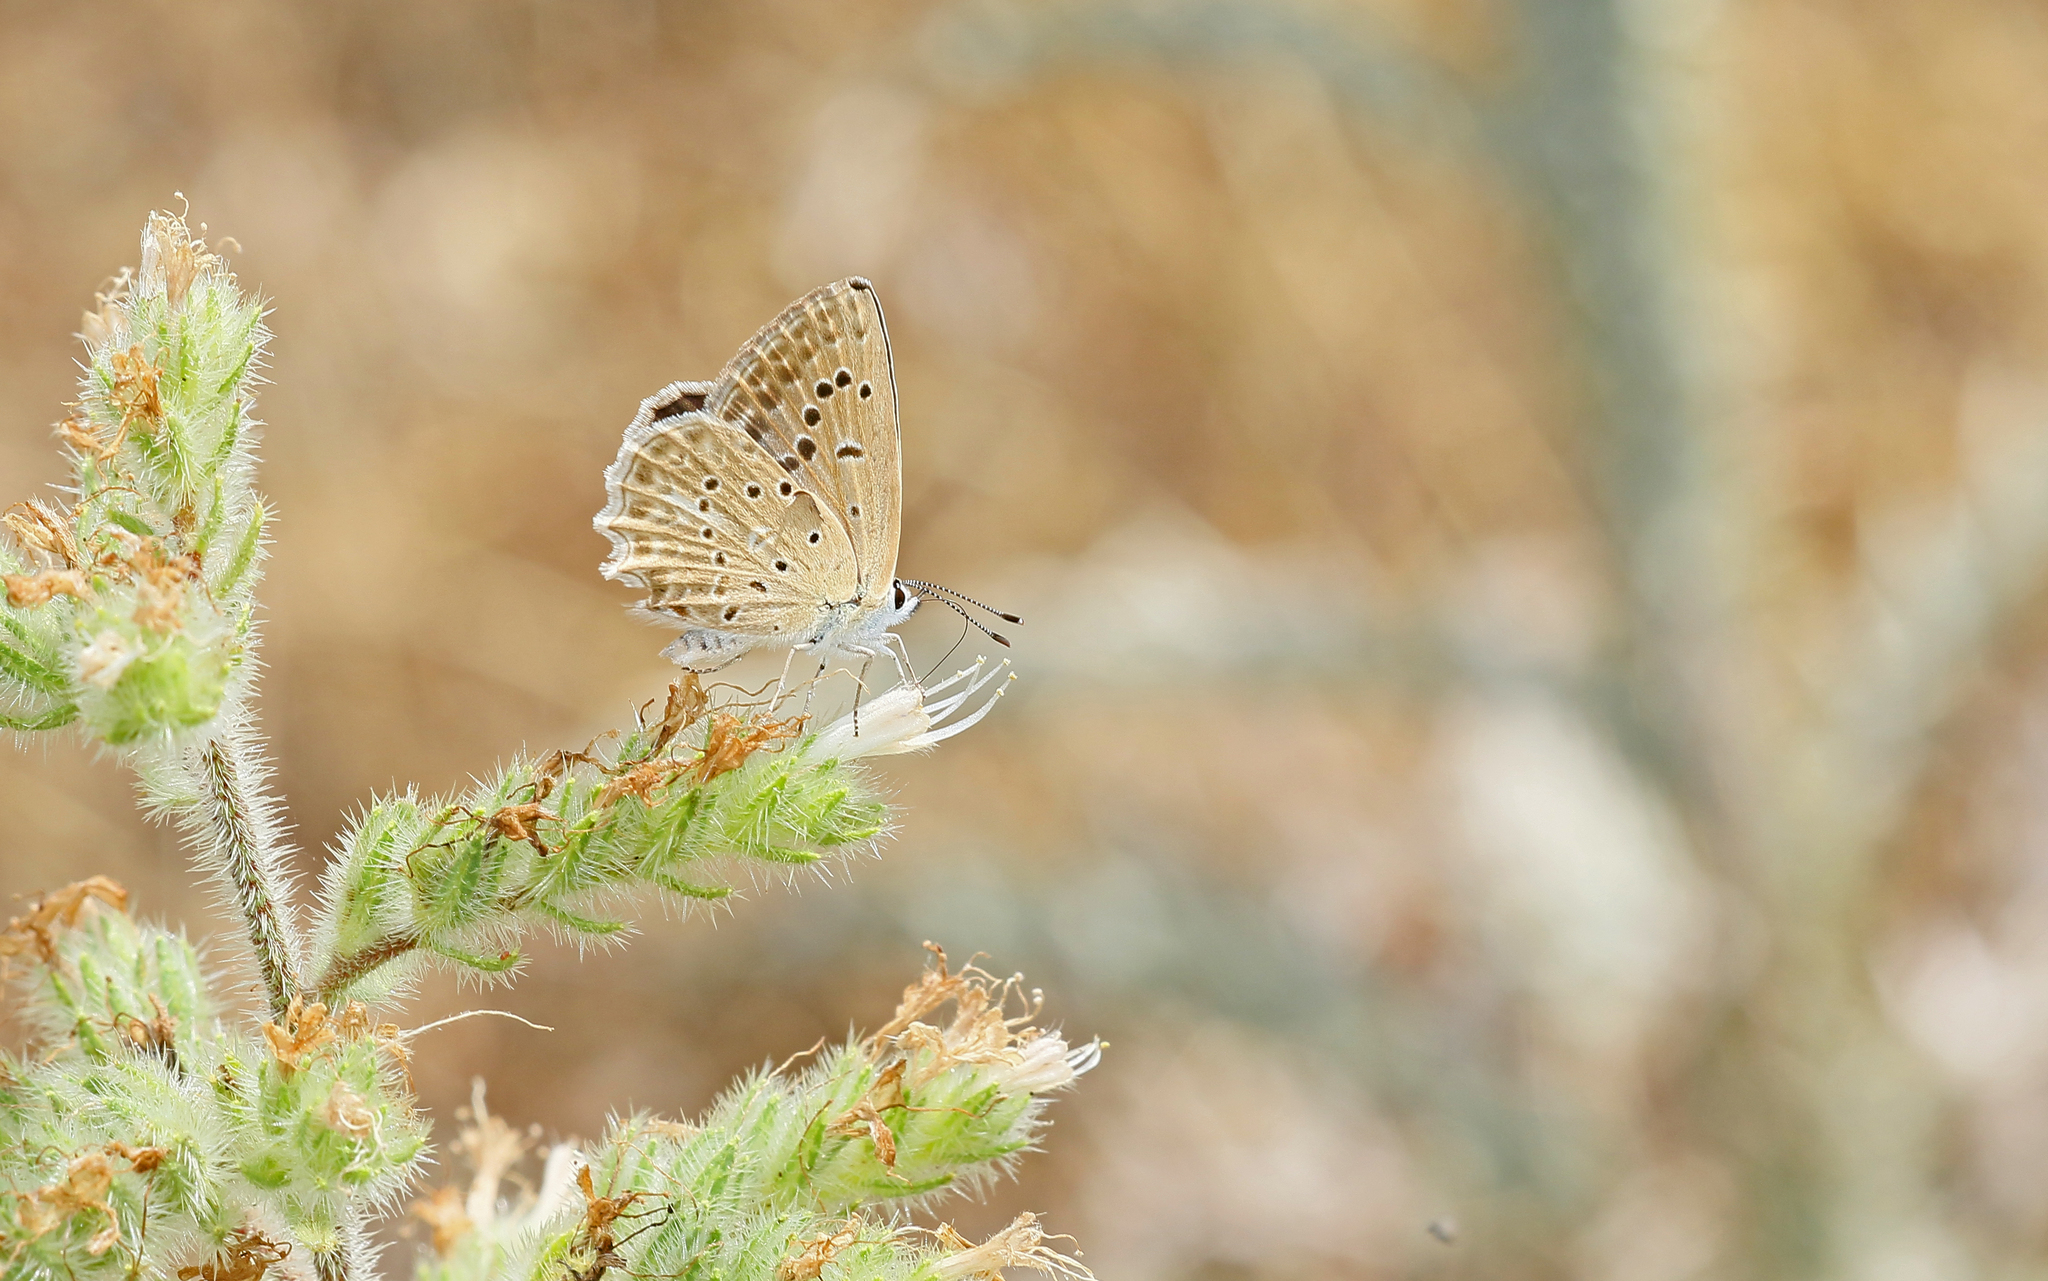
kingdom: Animalia
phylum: Arthropoda
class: Insecta
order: Lepidoptera
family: Lycaenidae
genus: Polyommatus
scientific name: Polyommatus daphnis
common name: Meleager's blue
